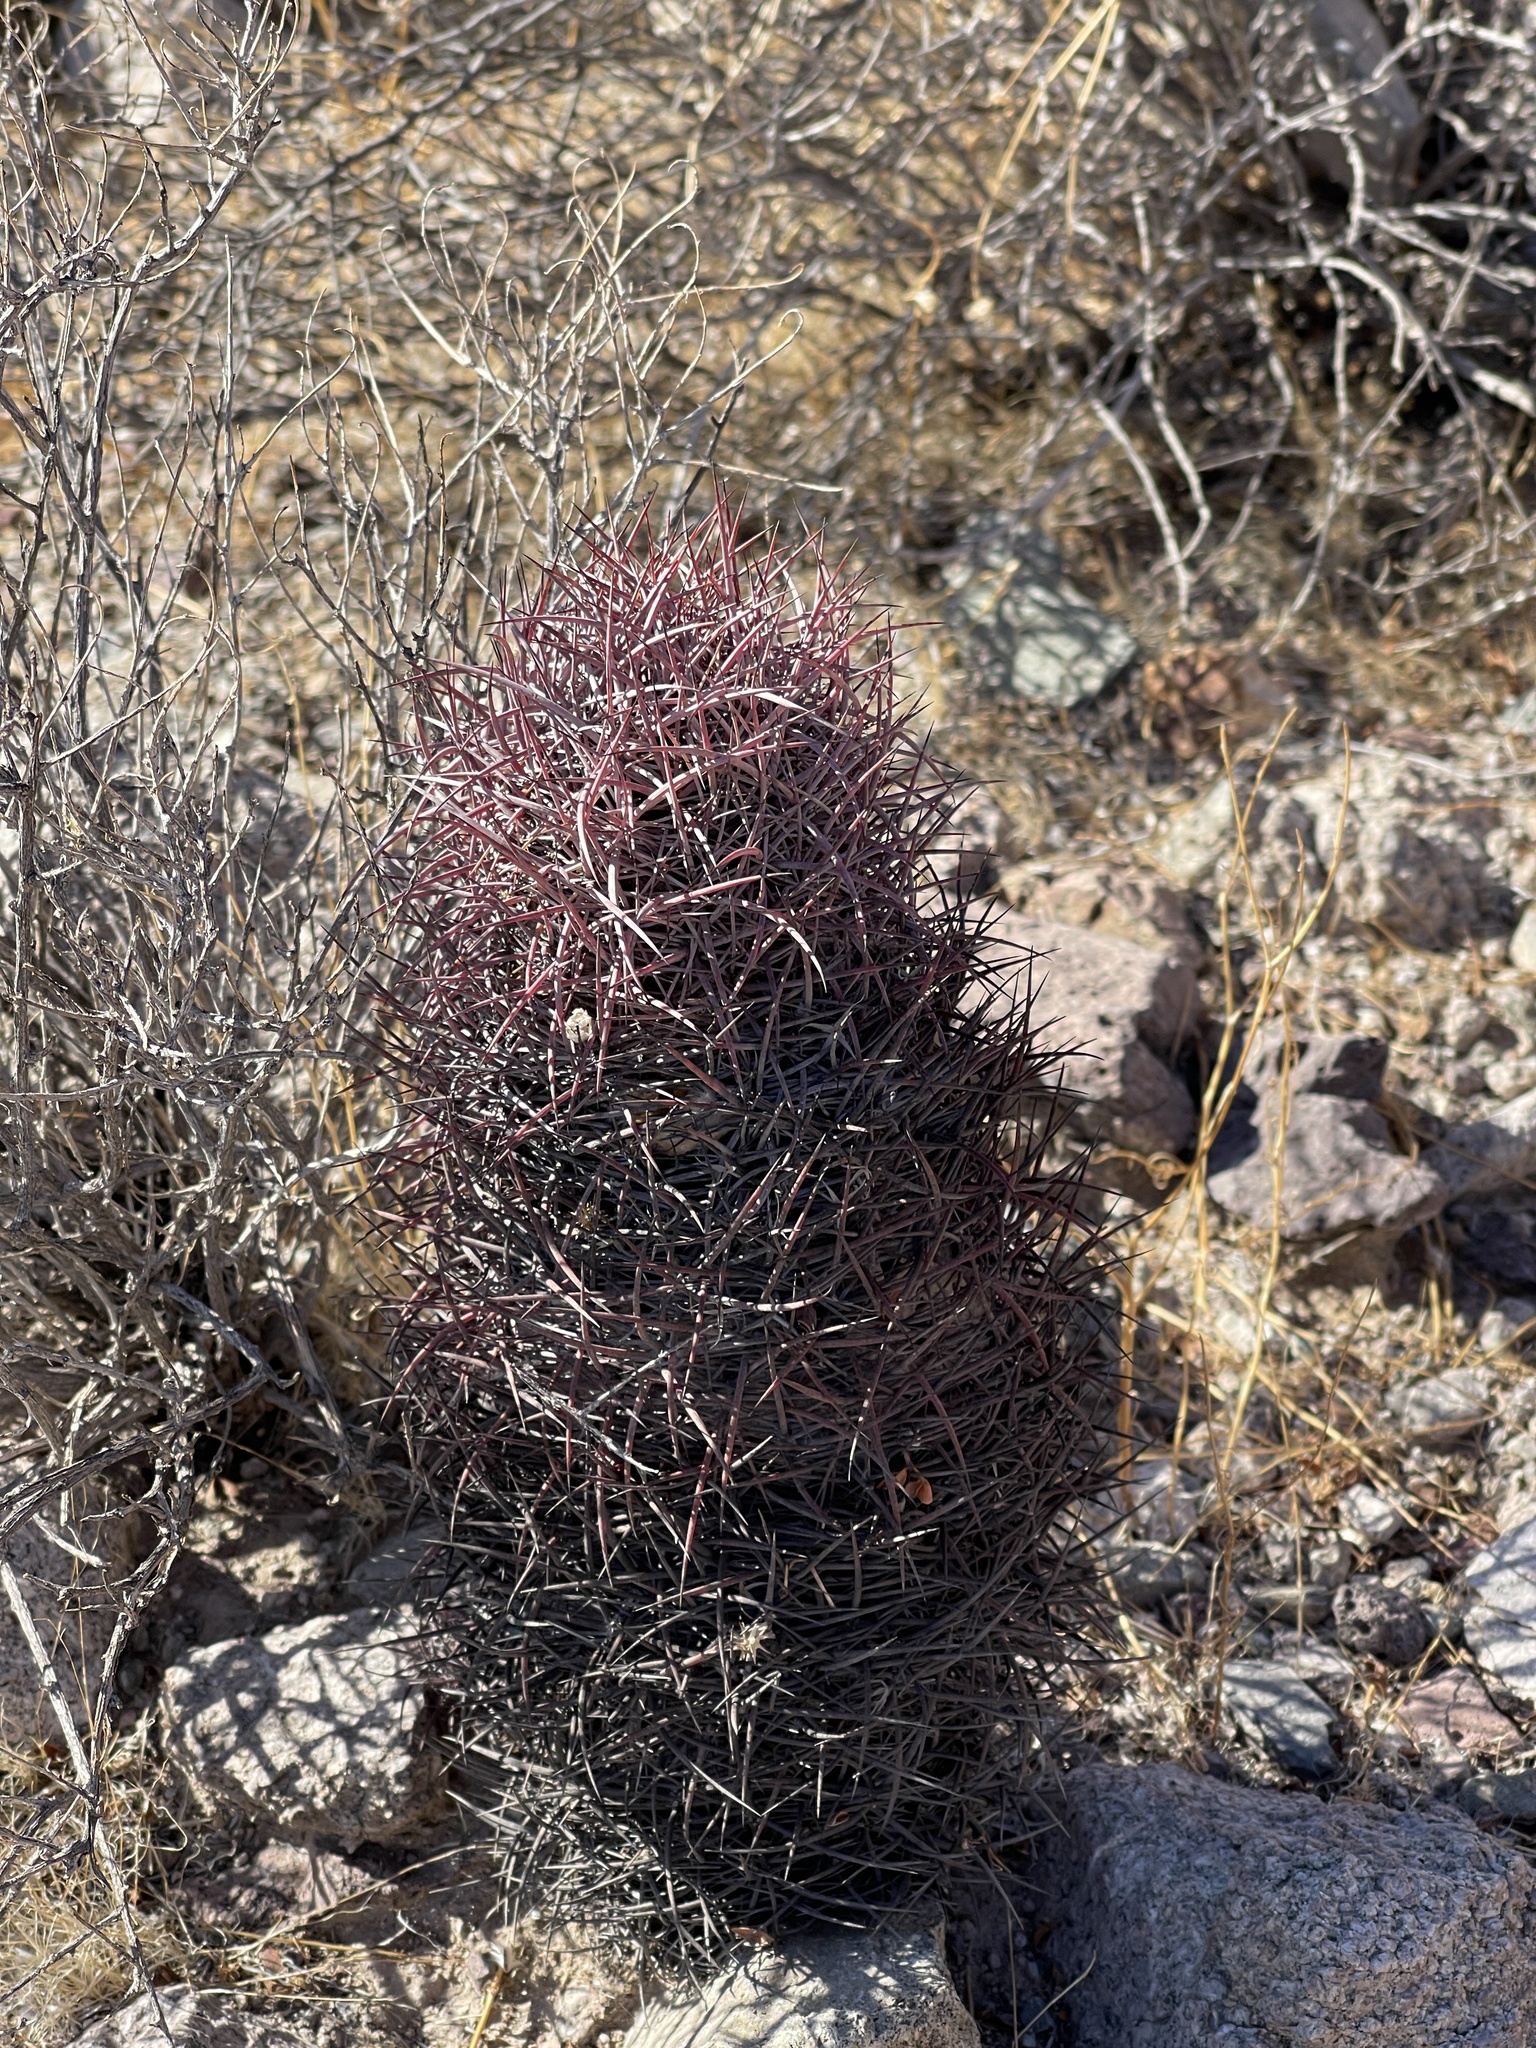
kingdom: Plantae
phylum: Tracheophyta
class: Magnoliopsida
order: Caryophyllales
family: Cactaceae
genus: Sclerocactus
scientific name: Sclerocactus johnsonii
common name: Eight-spine fishhook cactus
